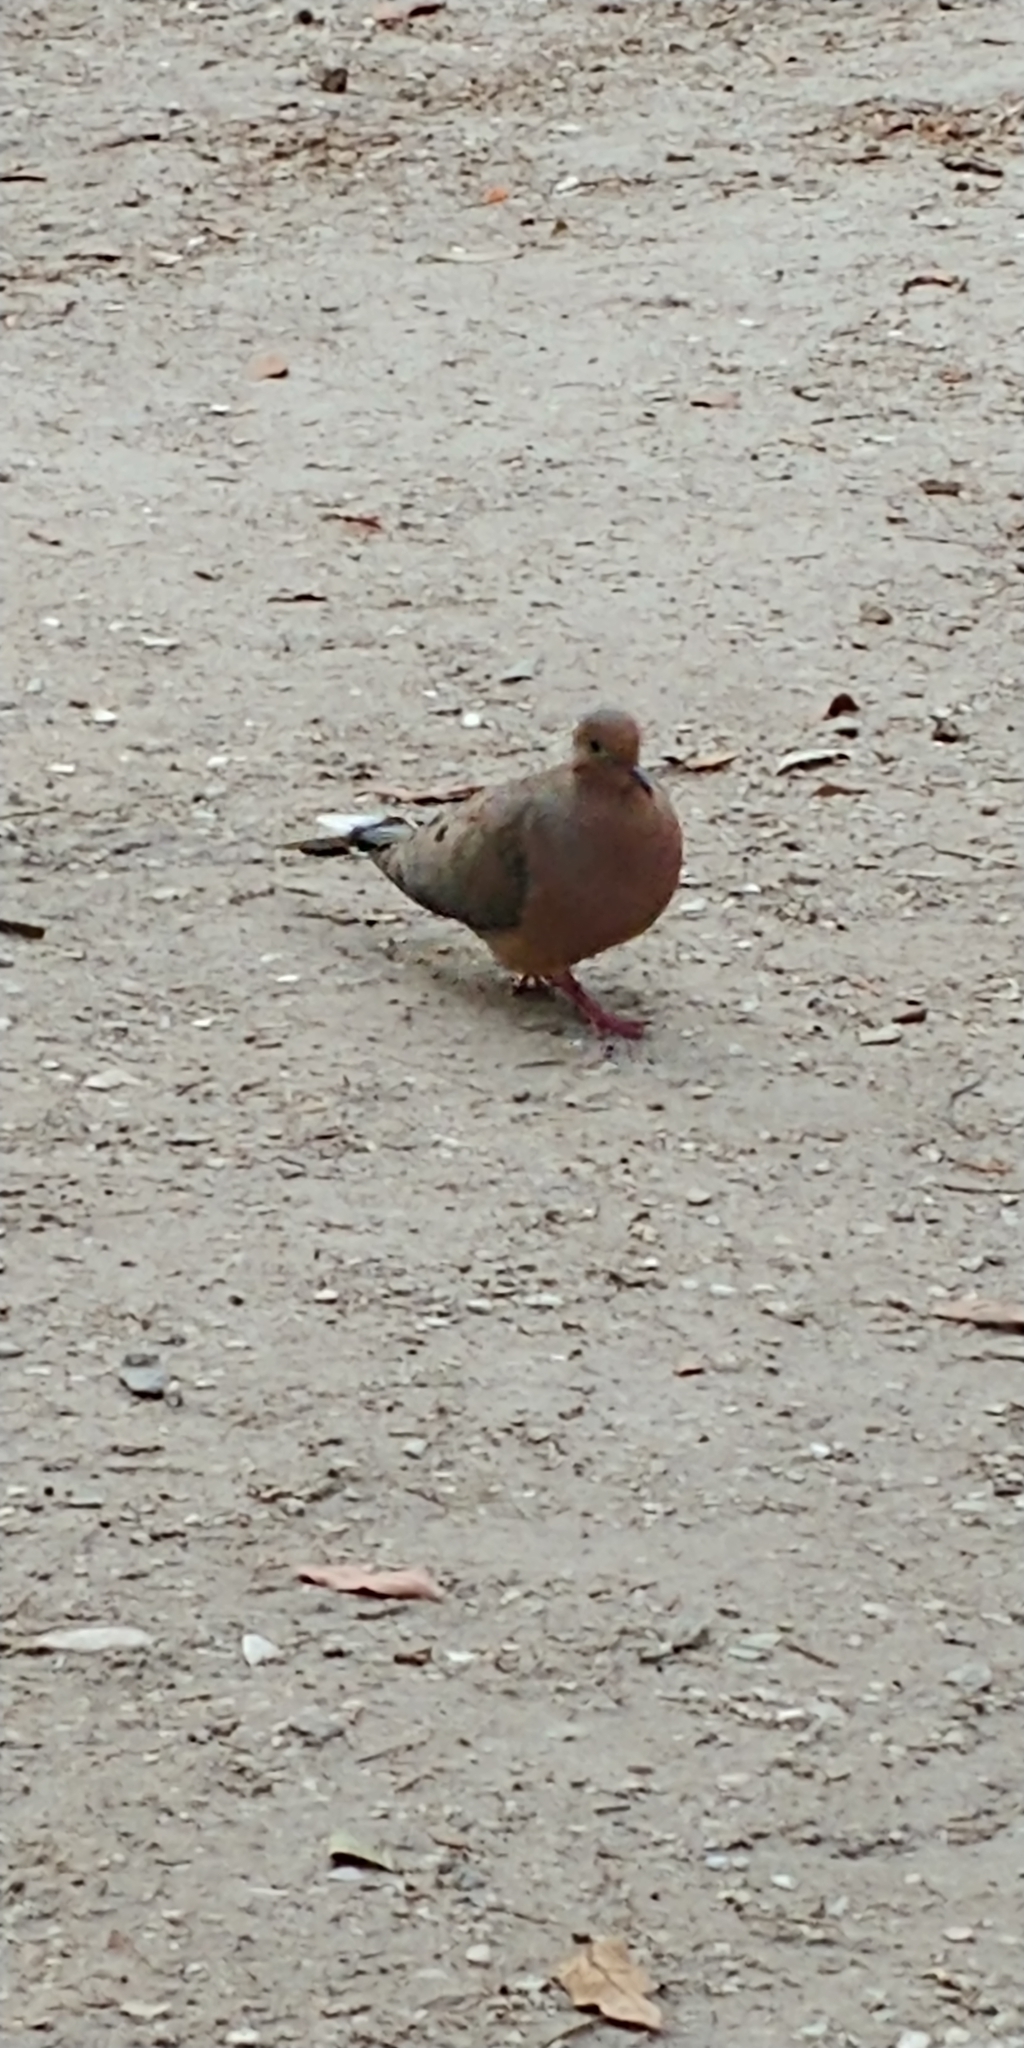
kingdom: Animalia
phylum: Chordata
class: Aves
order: Columbiformes
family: Columbidae
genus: Zenaida
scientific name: Zenaida macroura
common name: Mourning dove
